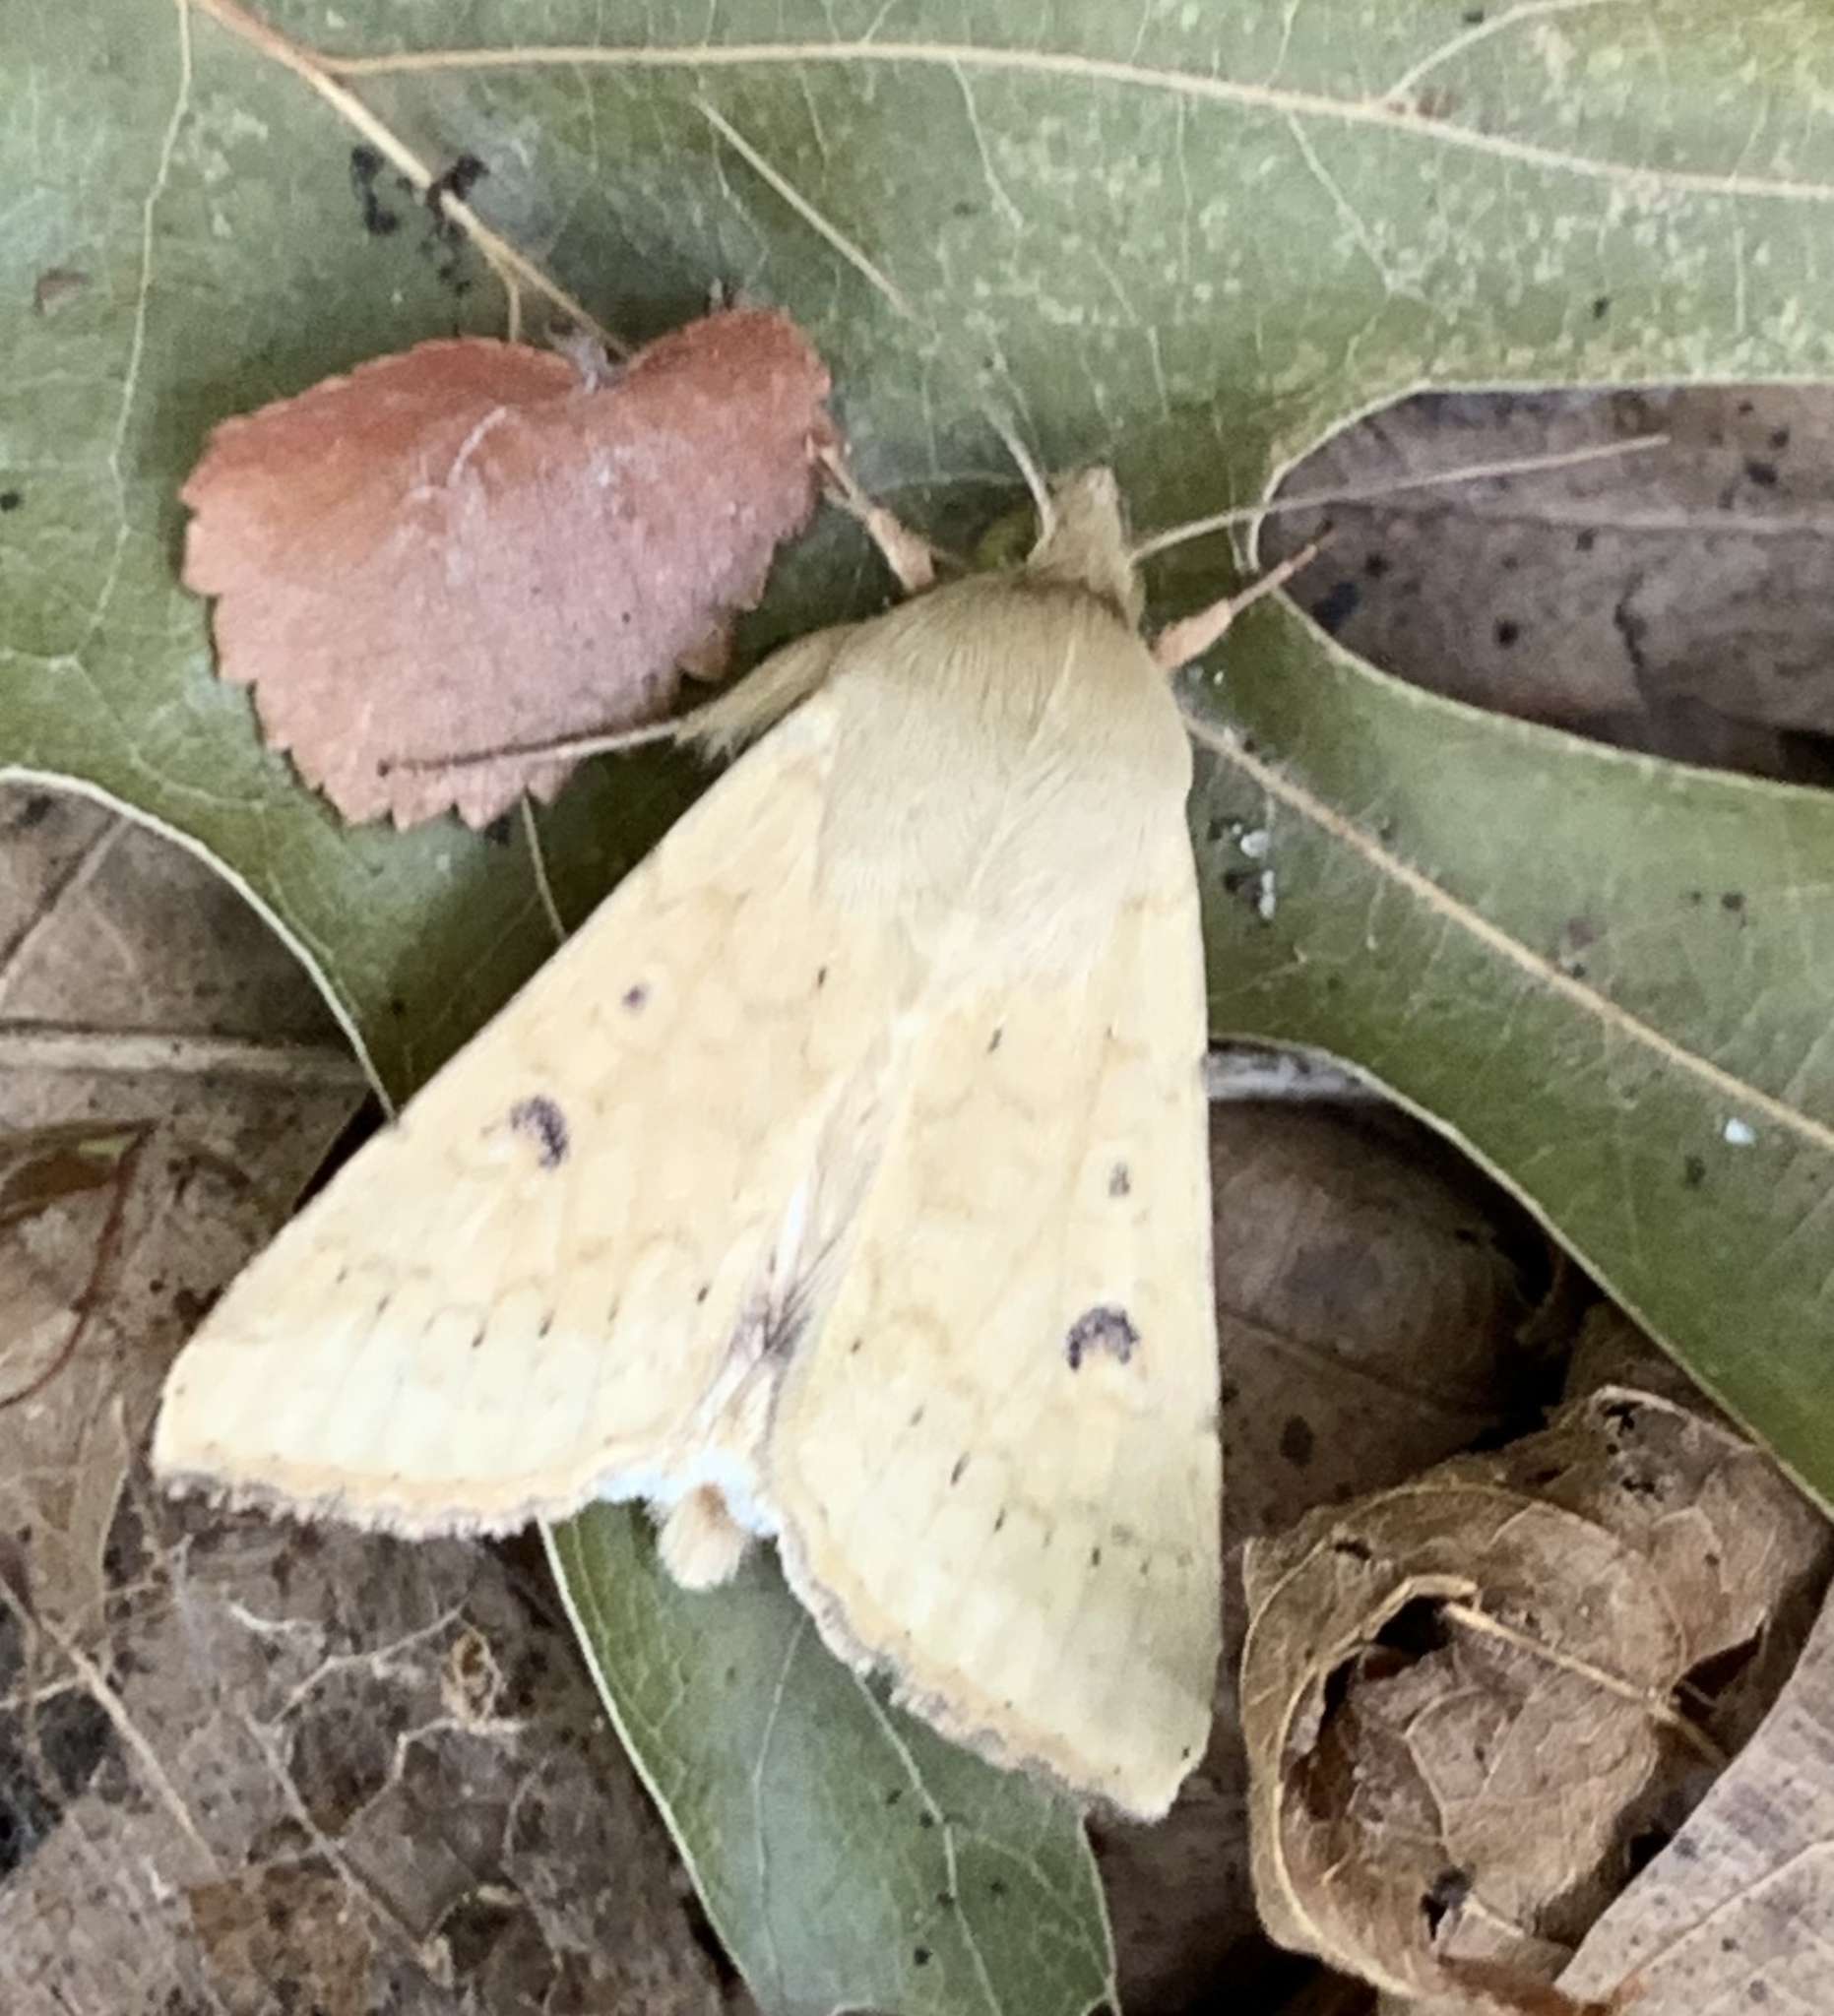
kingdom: Animalia
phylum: Arthropoda
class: Insecta
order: Lepidoptera
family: Noctuidae
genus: Helicoverpa
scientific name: Helicoverpa zea
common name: Bollworm
